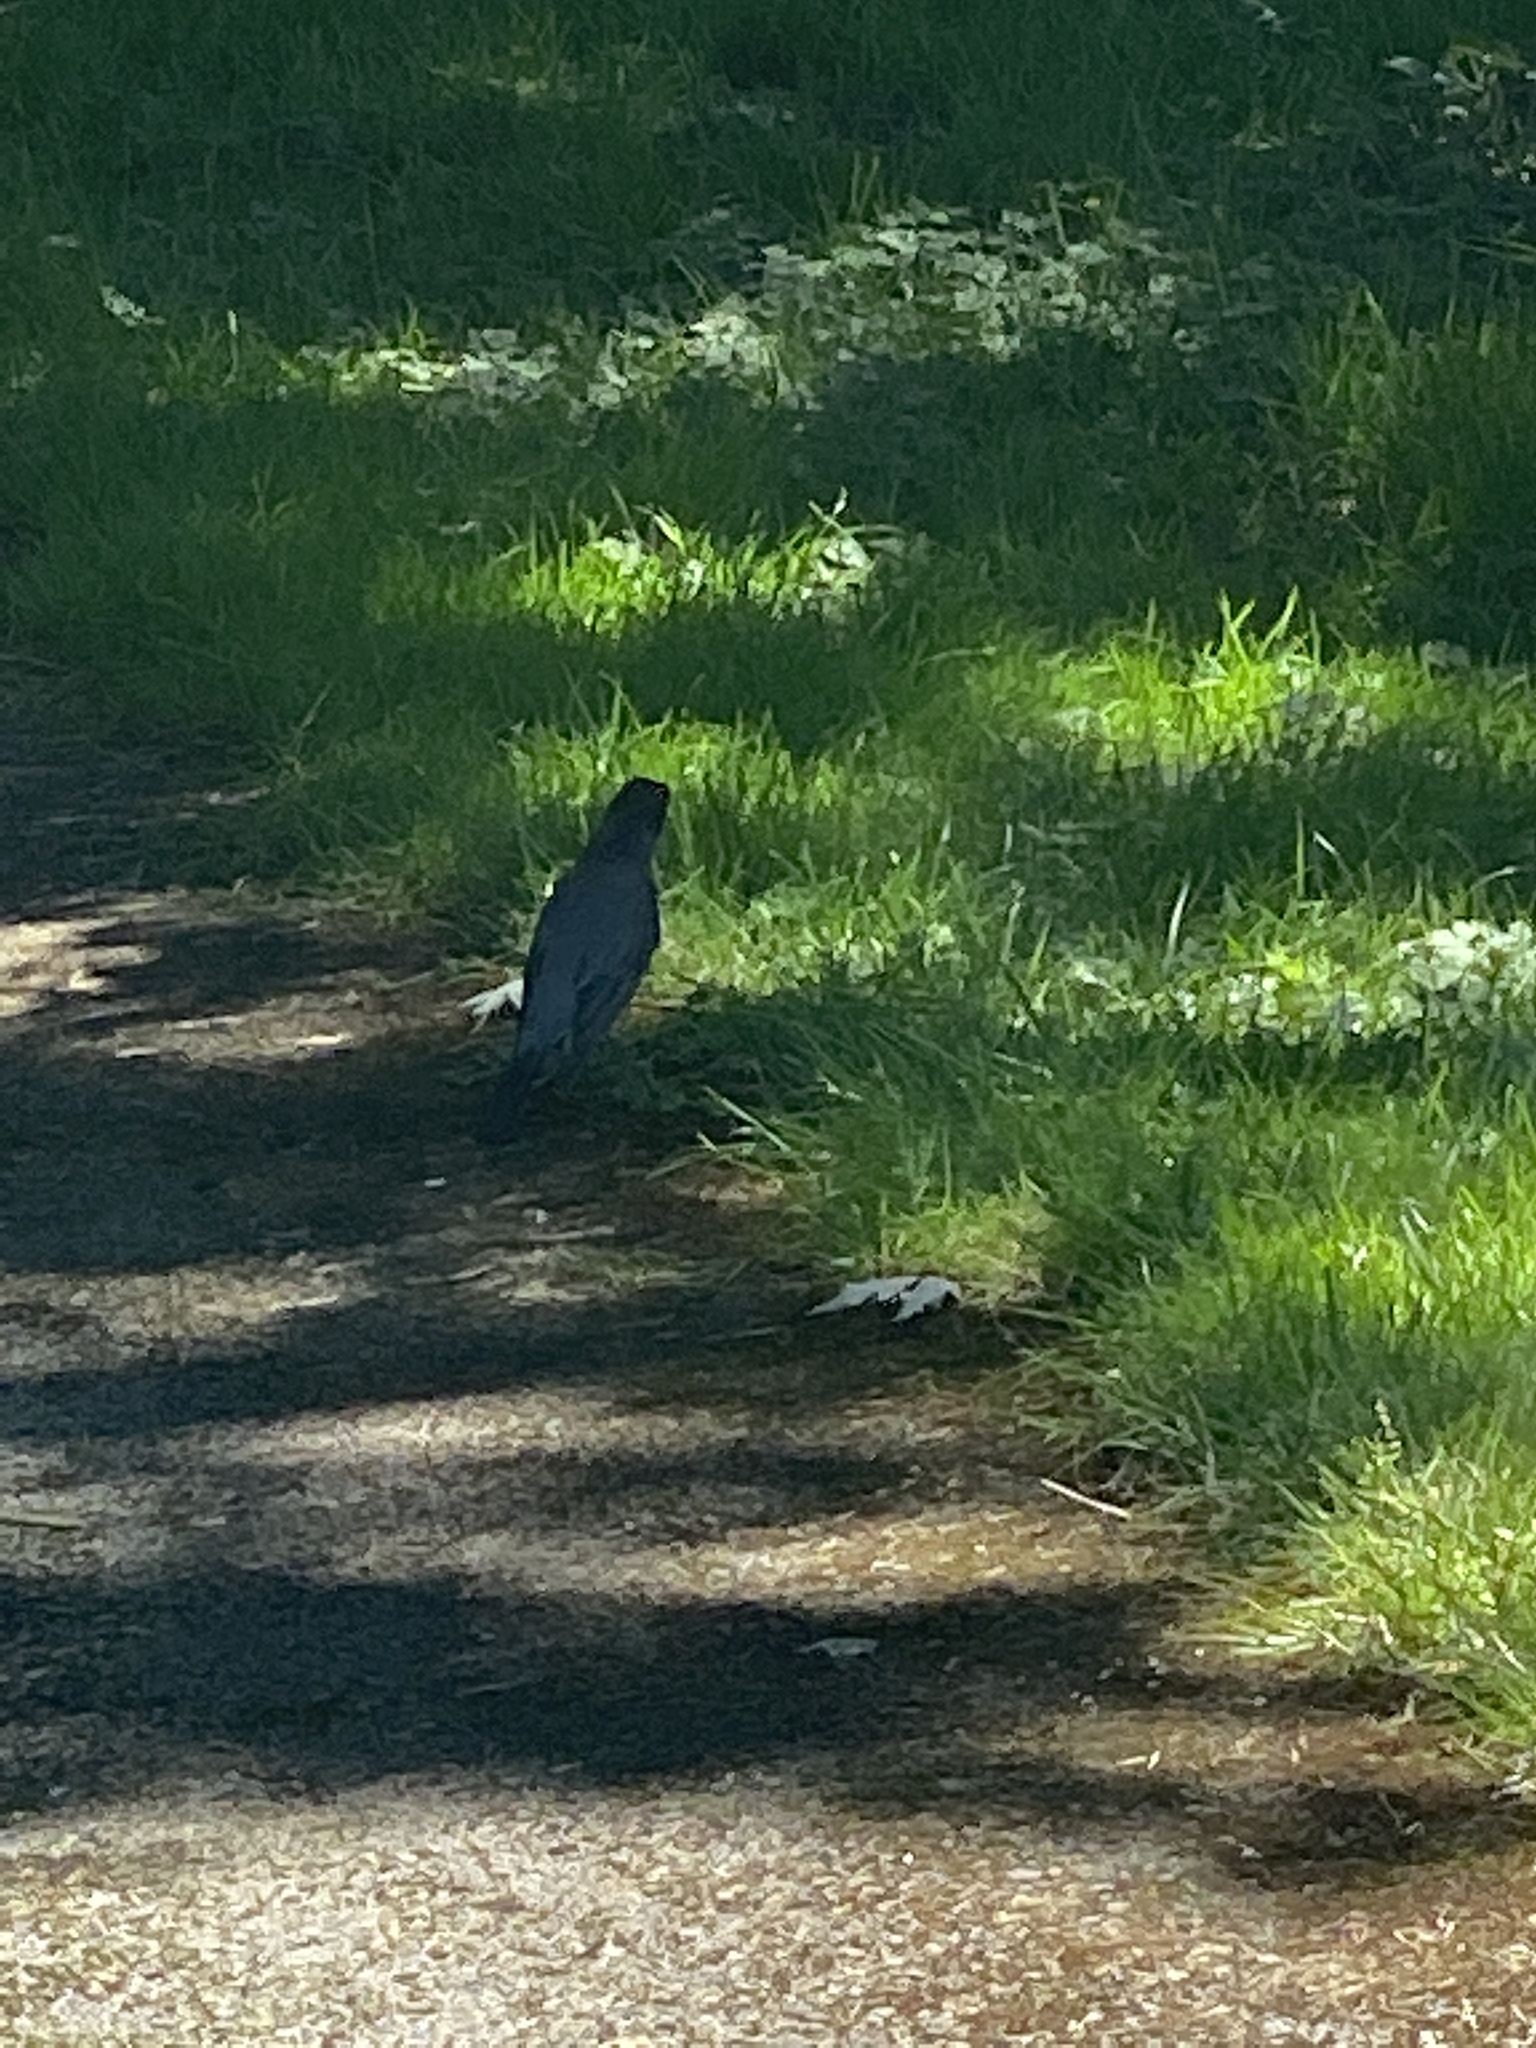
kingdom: Animalia
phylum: Chordata
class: Aves
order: Passeriformes
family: Turdidae
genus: Turdus
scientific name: Turdus migratorius
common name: American robin
